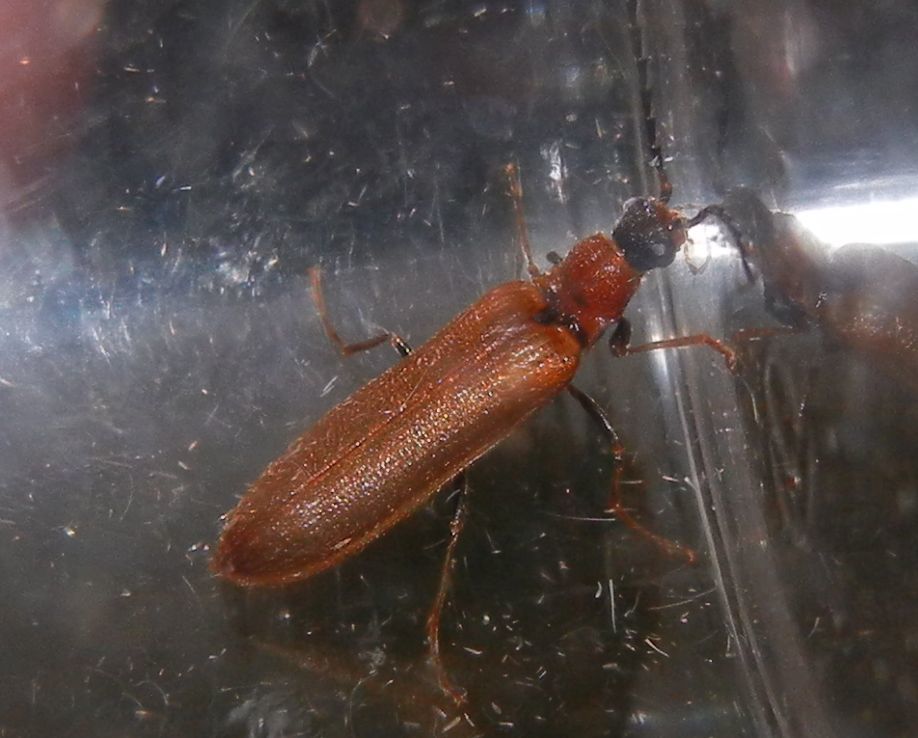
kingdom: Animalia
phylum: Arthropoda
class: Insecta
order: Coleoptera
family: Elateridae
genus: Denticollis
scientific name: Denticollis linearis
